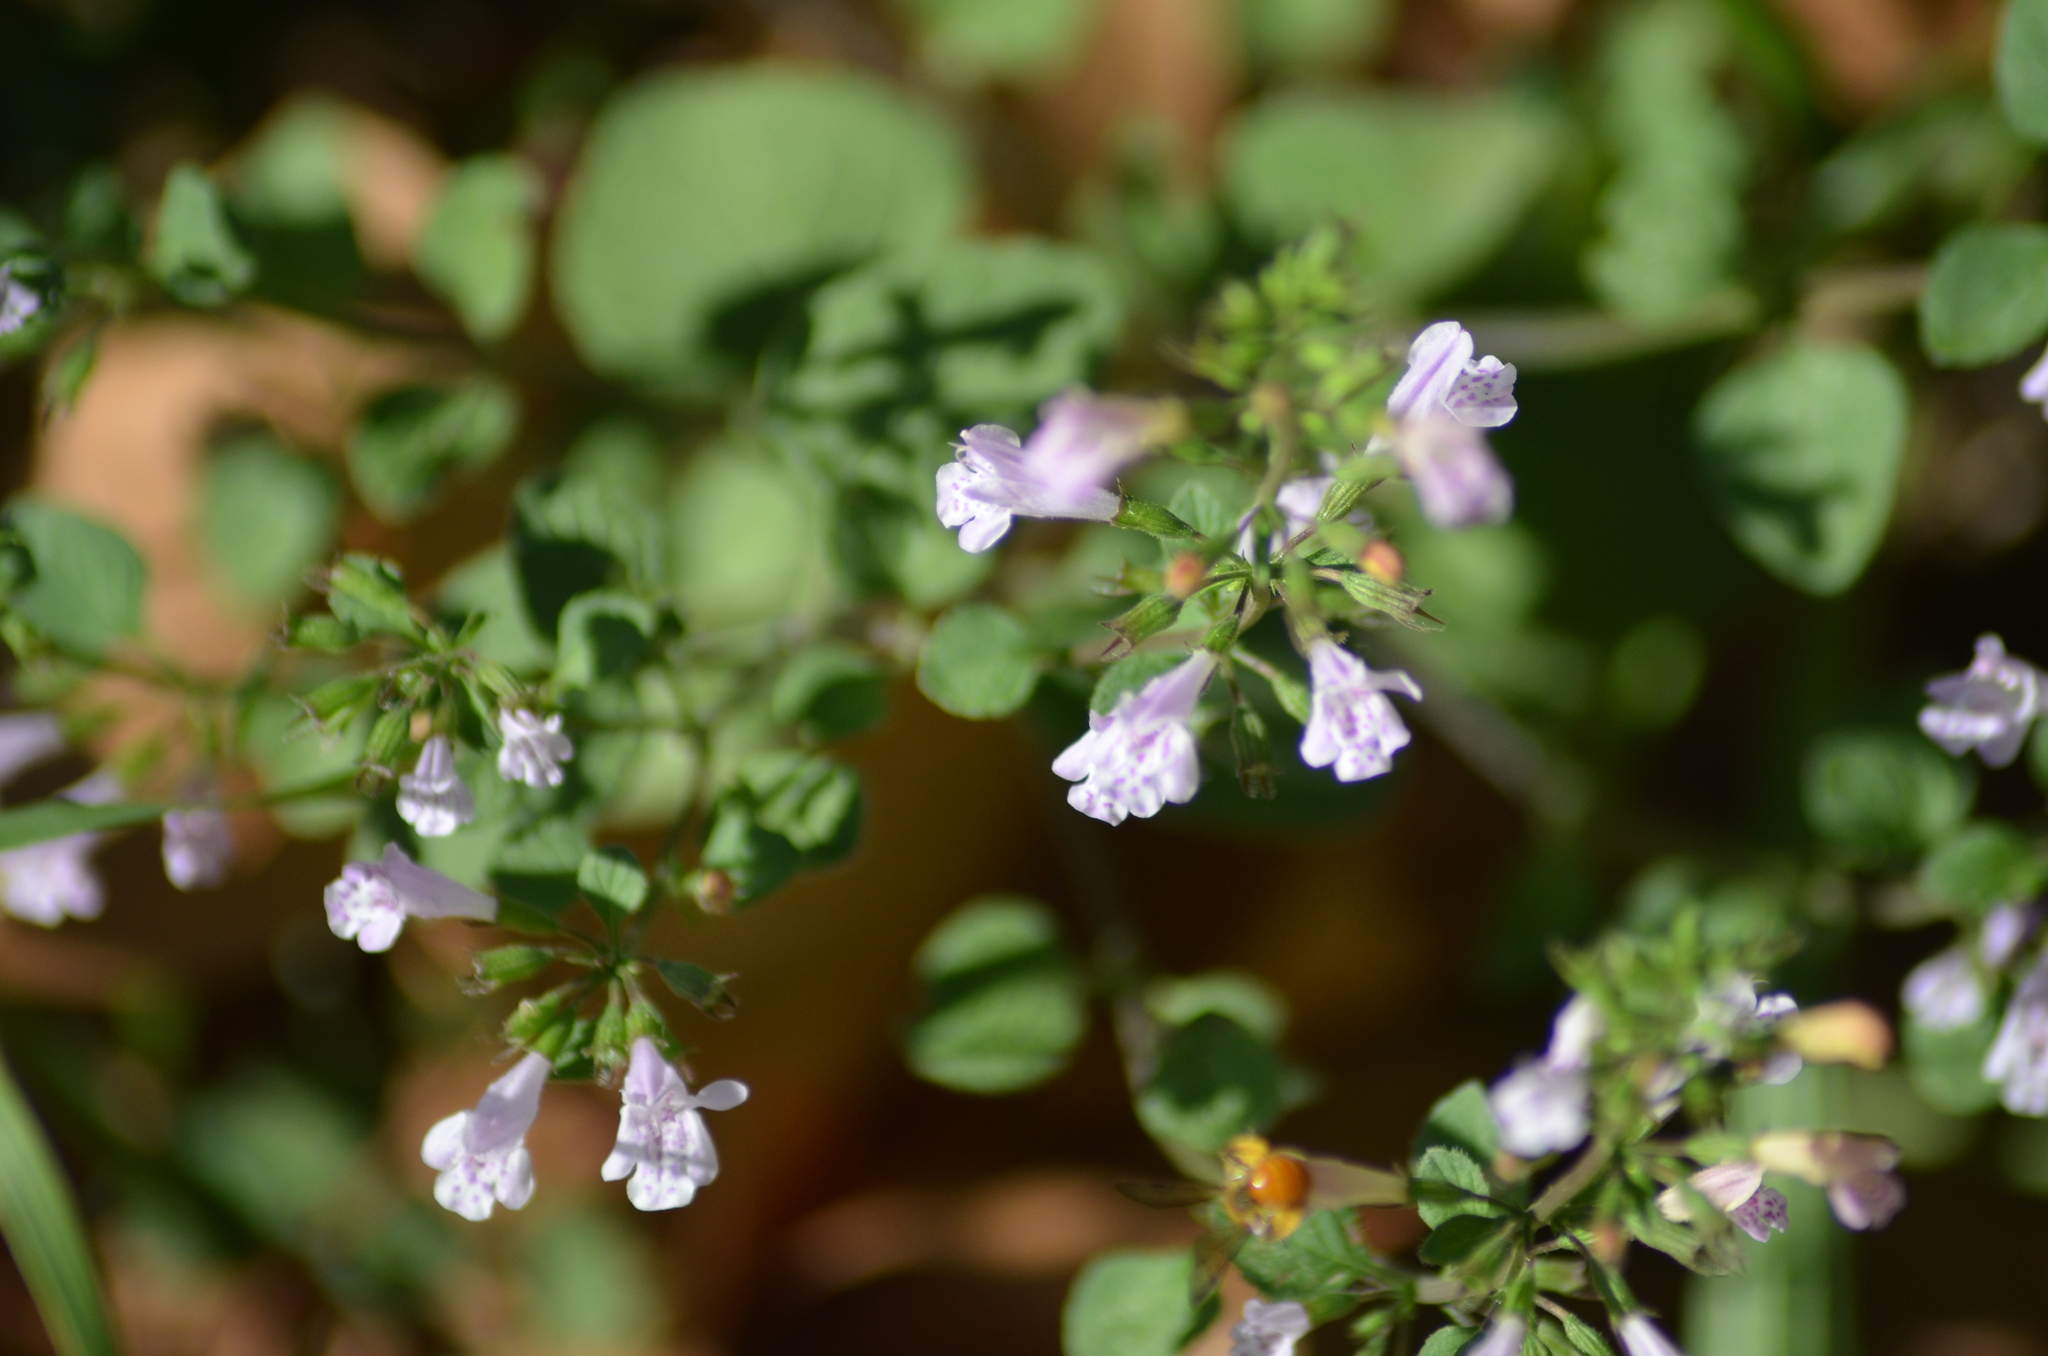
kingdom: Plantae
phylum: Tracheophyta
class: Magnoliopsida
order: Lamiales
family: Lamiaceae
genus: Clinopodium
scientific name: Clinopodium nepeta
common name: Lesser calamint
